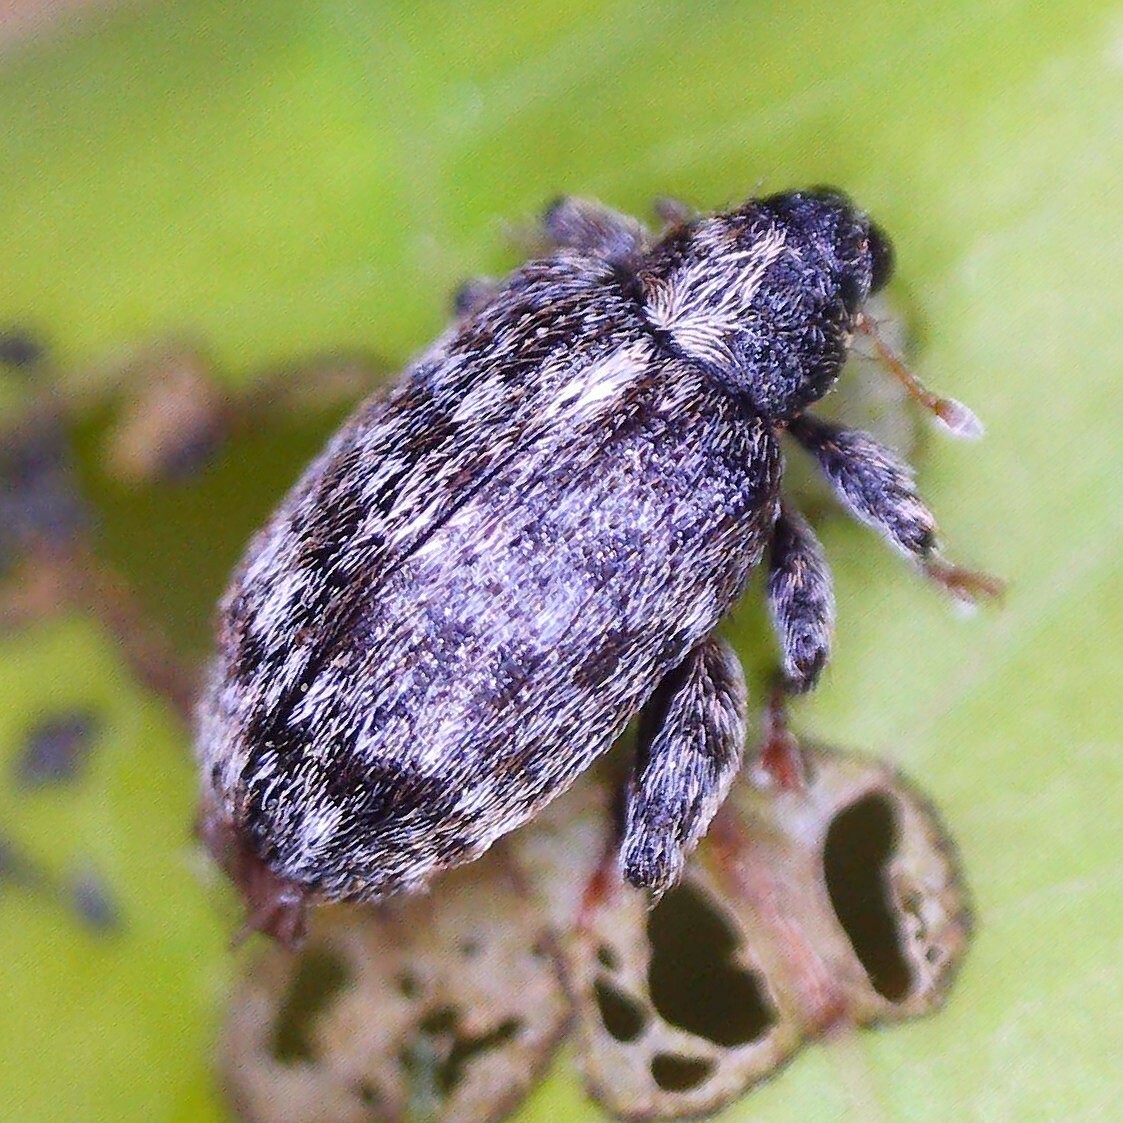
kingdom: Animalia
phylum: Arthropoda
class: Insecta
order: Coleoptera
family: Curculionidae
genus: Orchestes
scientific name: Orchestes pilosus
